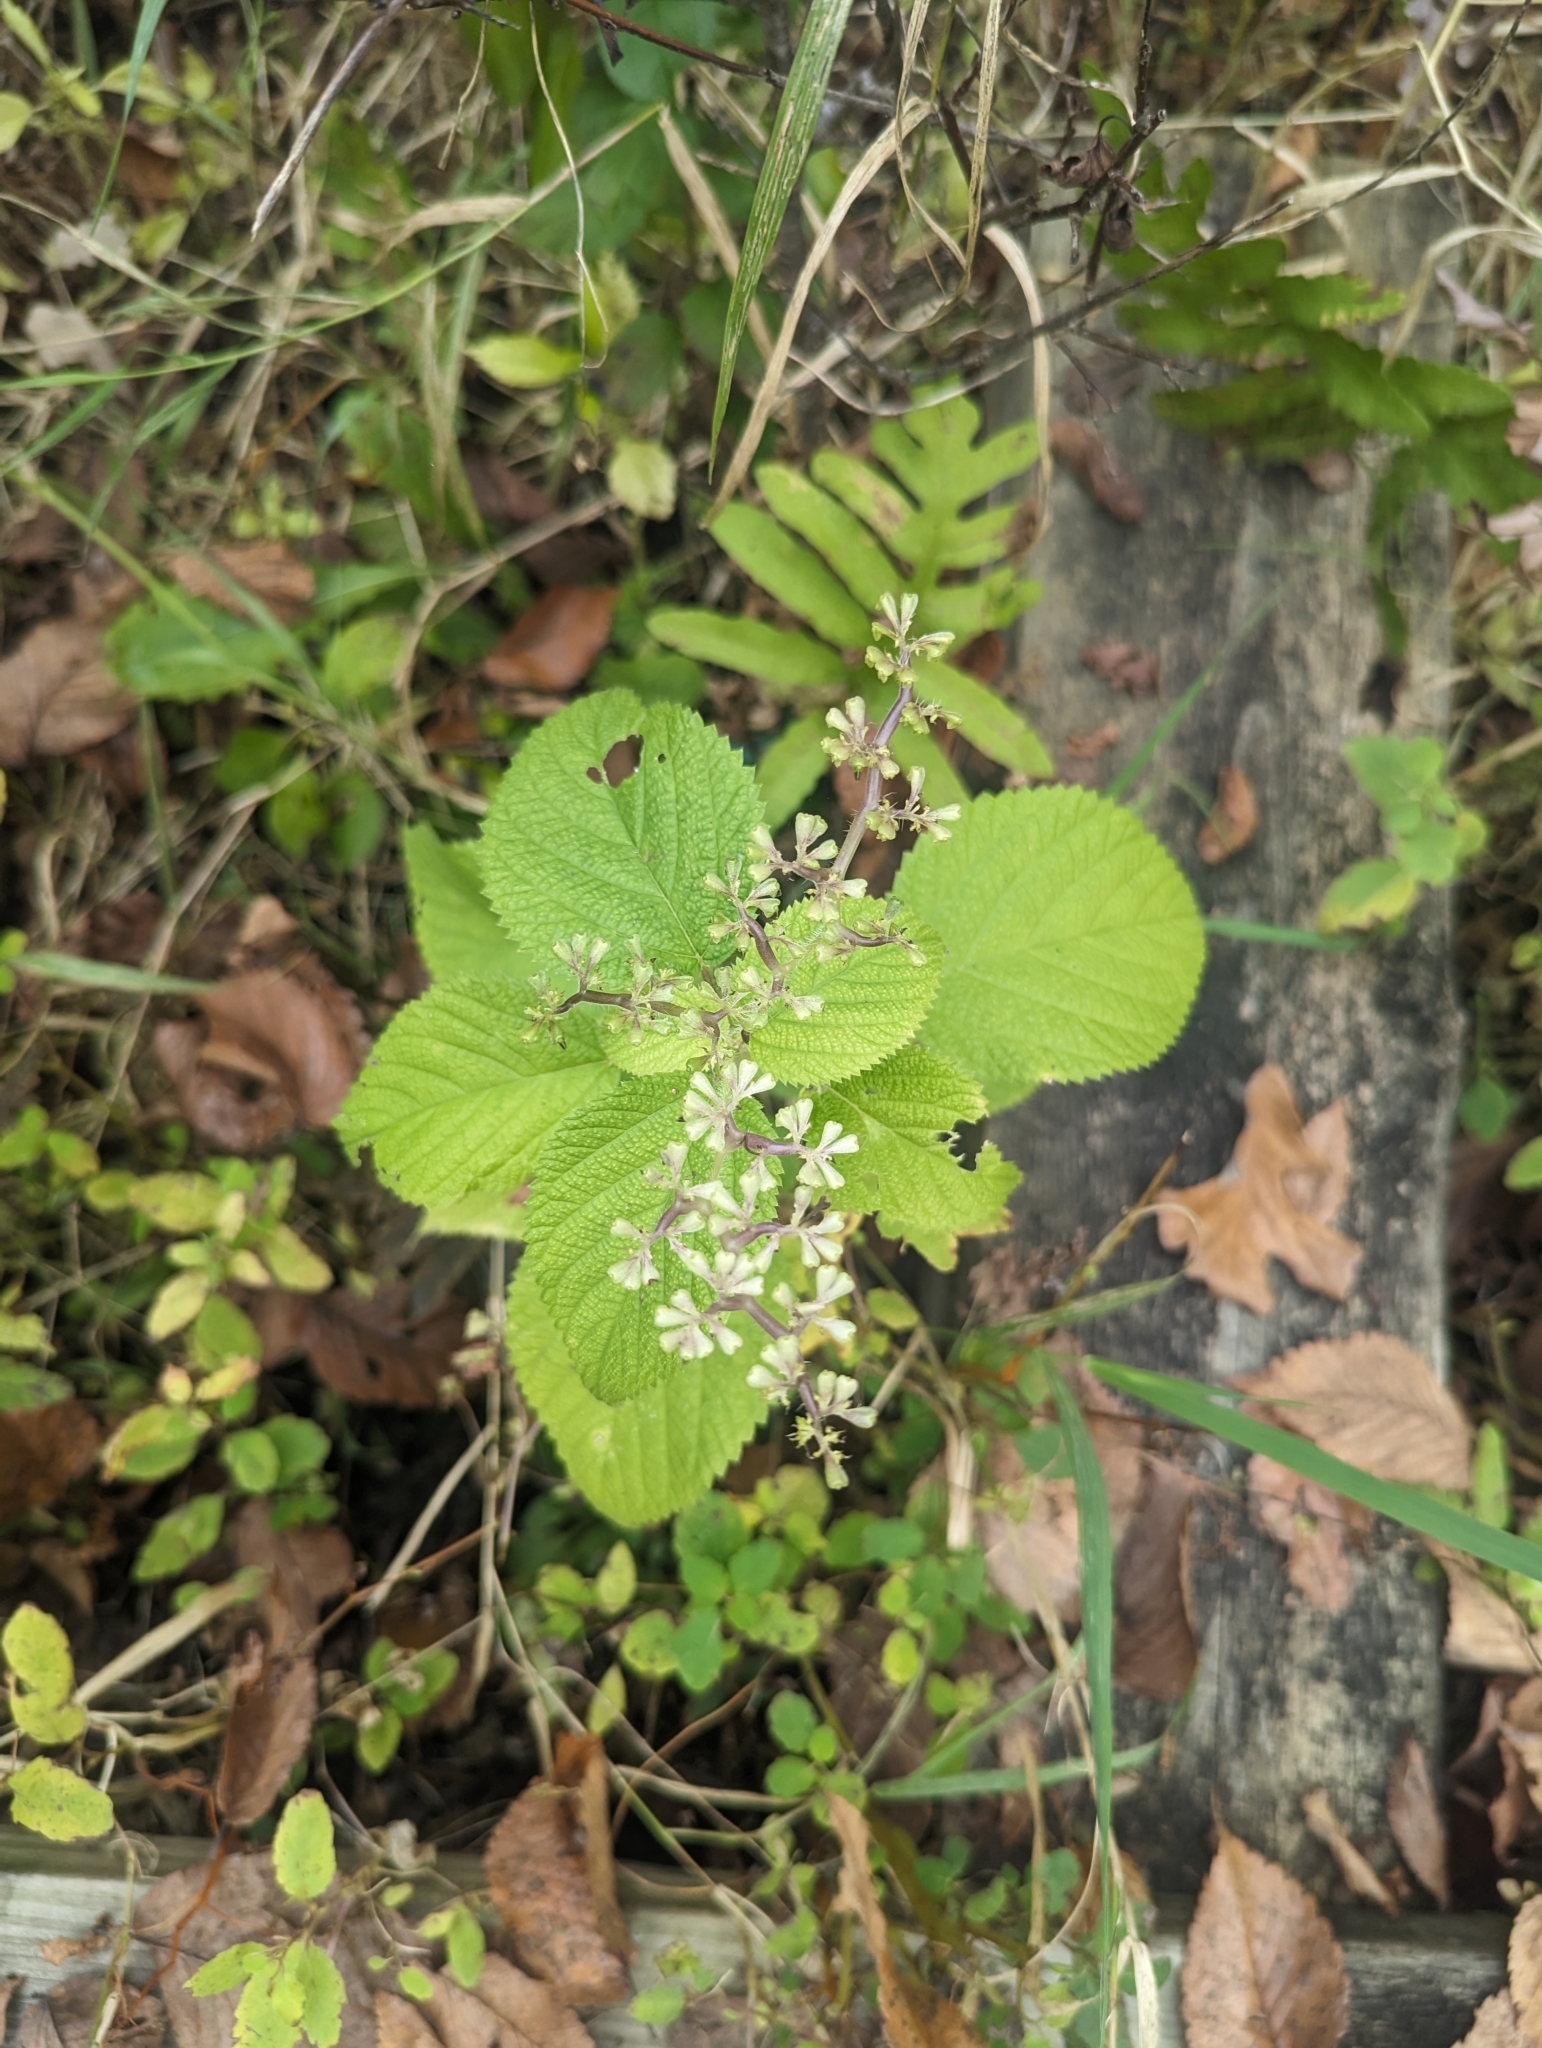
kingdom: Plantae
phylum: Tracheophyta
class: Magnoliopsida
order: Rosales
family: Urticaceae
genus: Laportea
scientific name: Laportea canadensis
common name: Canada nettle
